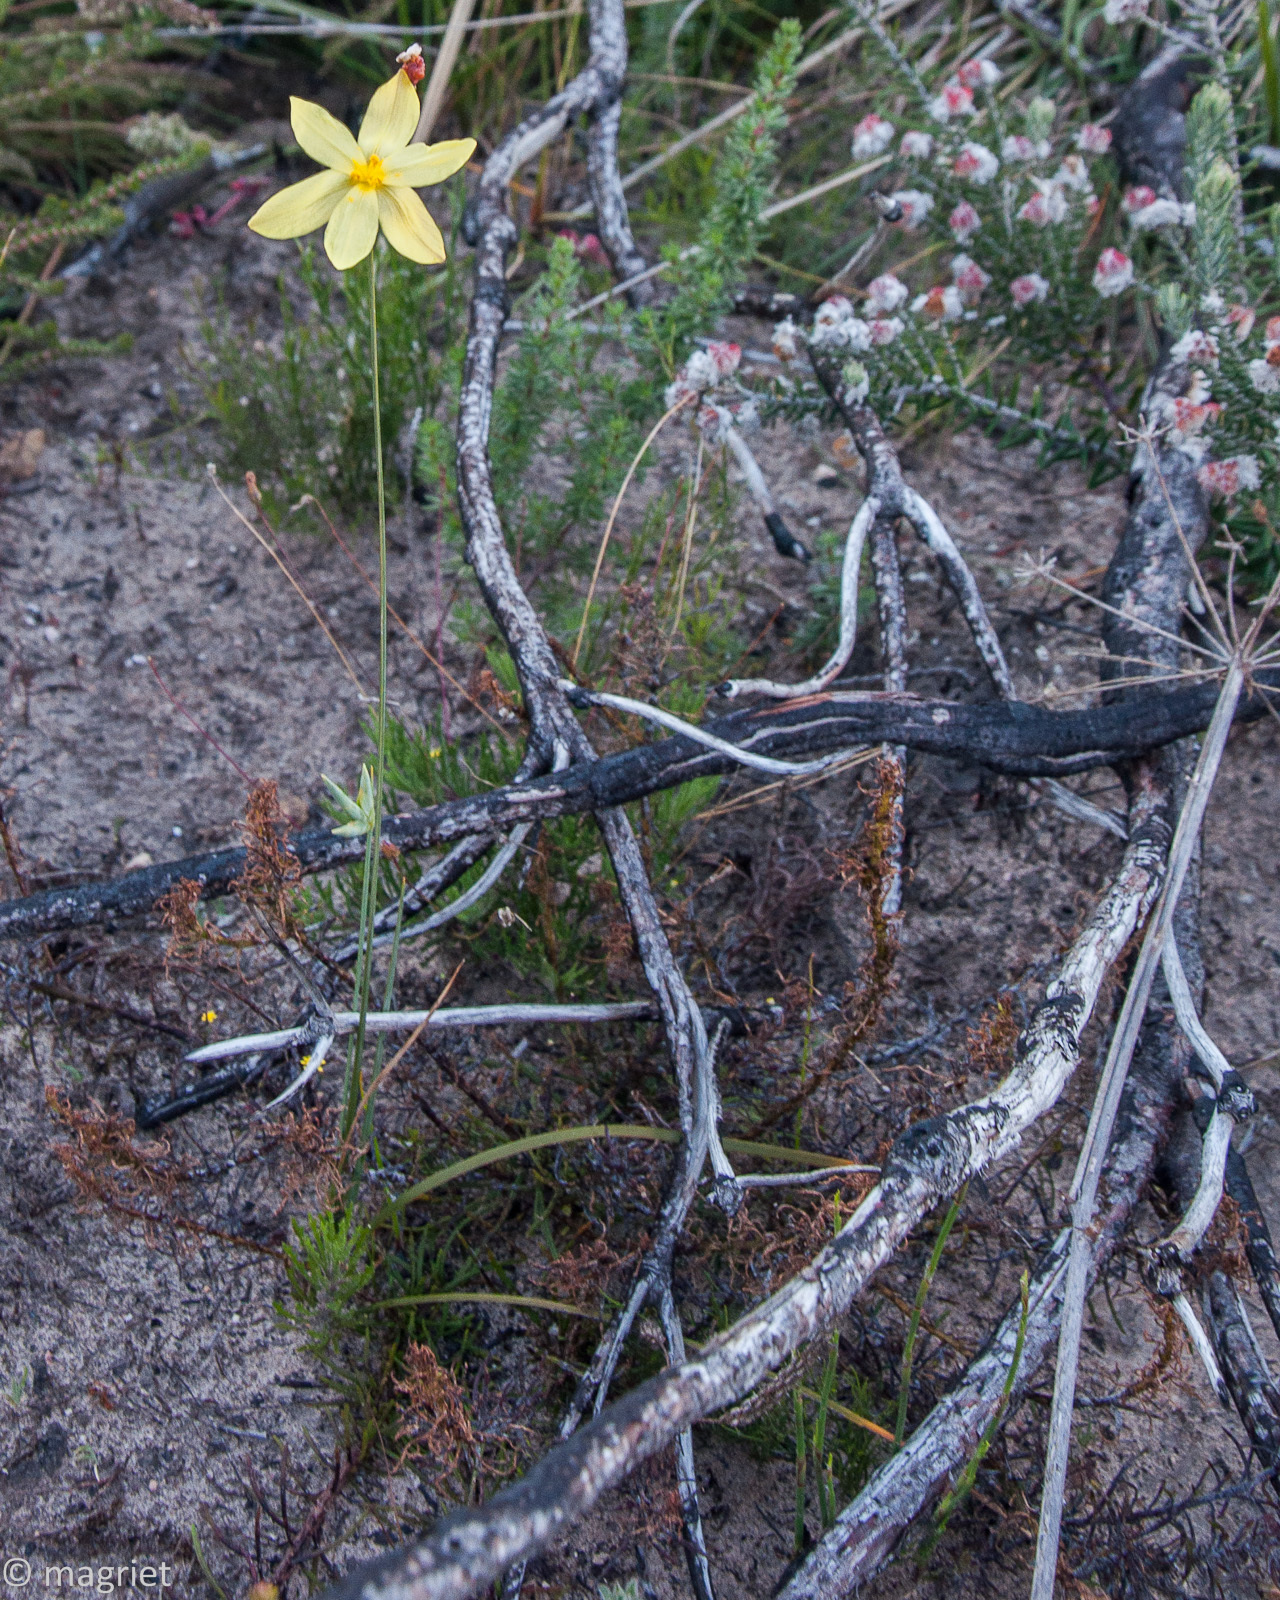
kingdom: Plantae
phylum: Tracheophyta
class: Liliopsida
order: Asparagales
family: Iridaceae
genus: Bobartia
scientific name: Bobartia filiformis
